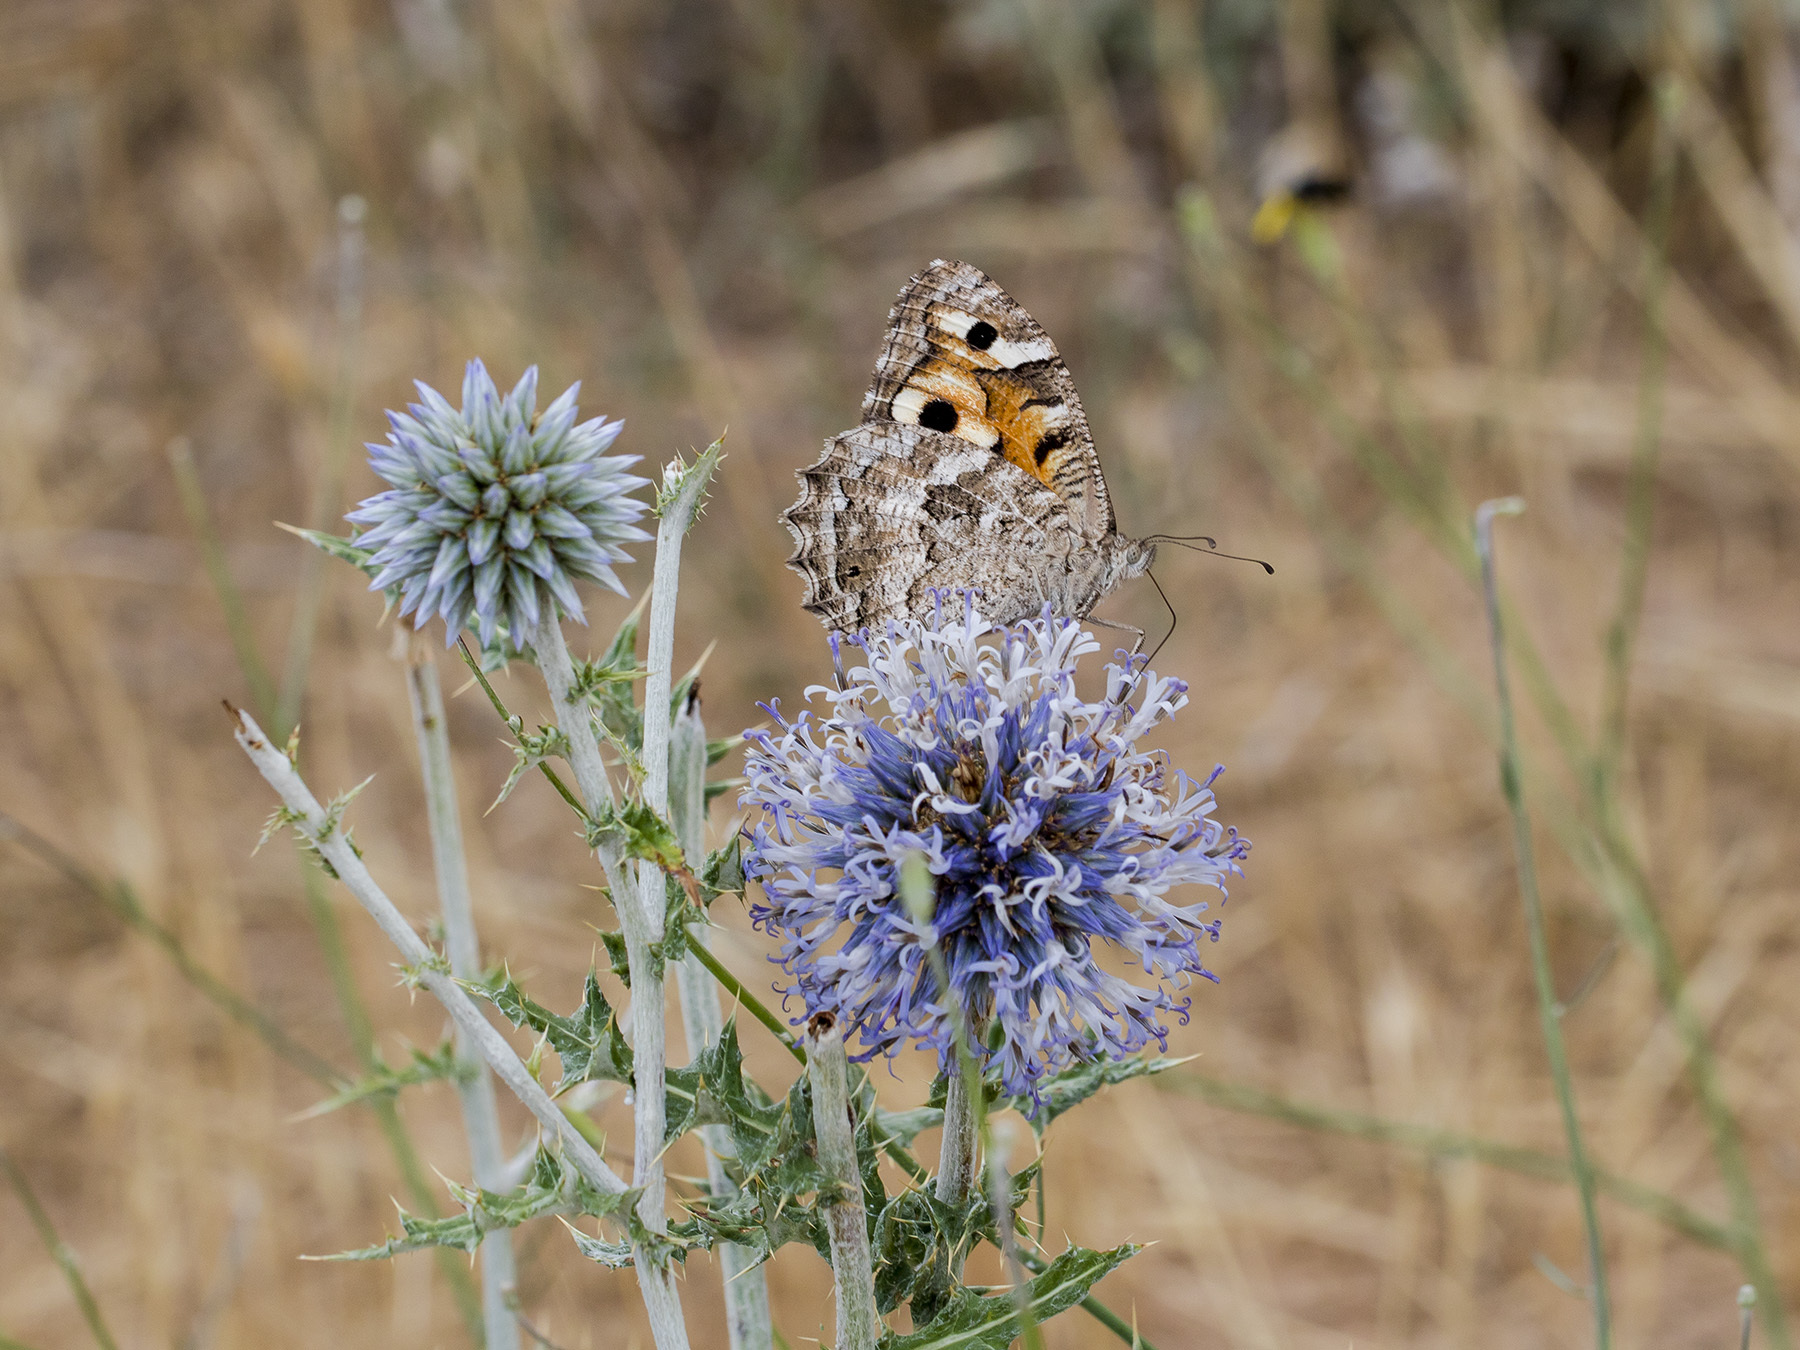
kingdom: Animalia
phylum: Arthropoda
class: Insecta
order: Lepidoptera
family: Nymphalidae
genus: Satyrus
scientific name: Satyrus Chazara enervata
